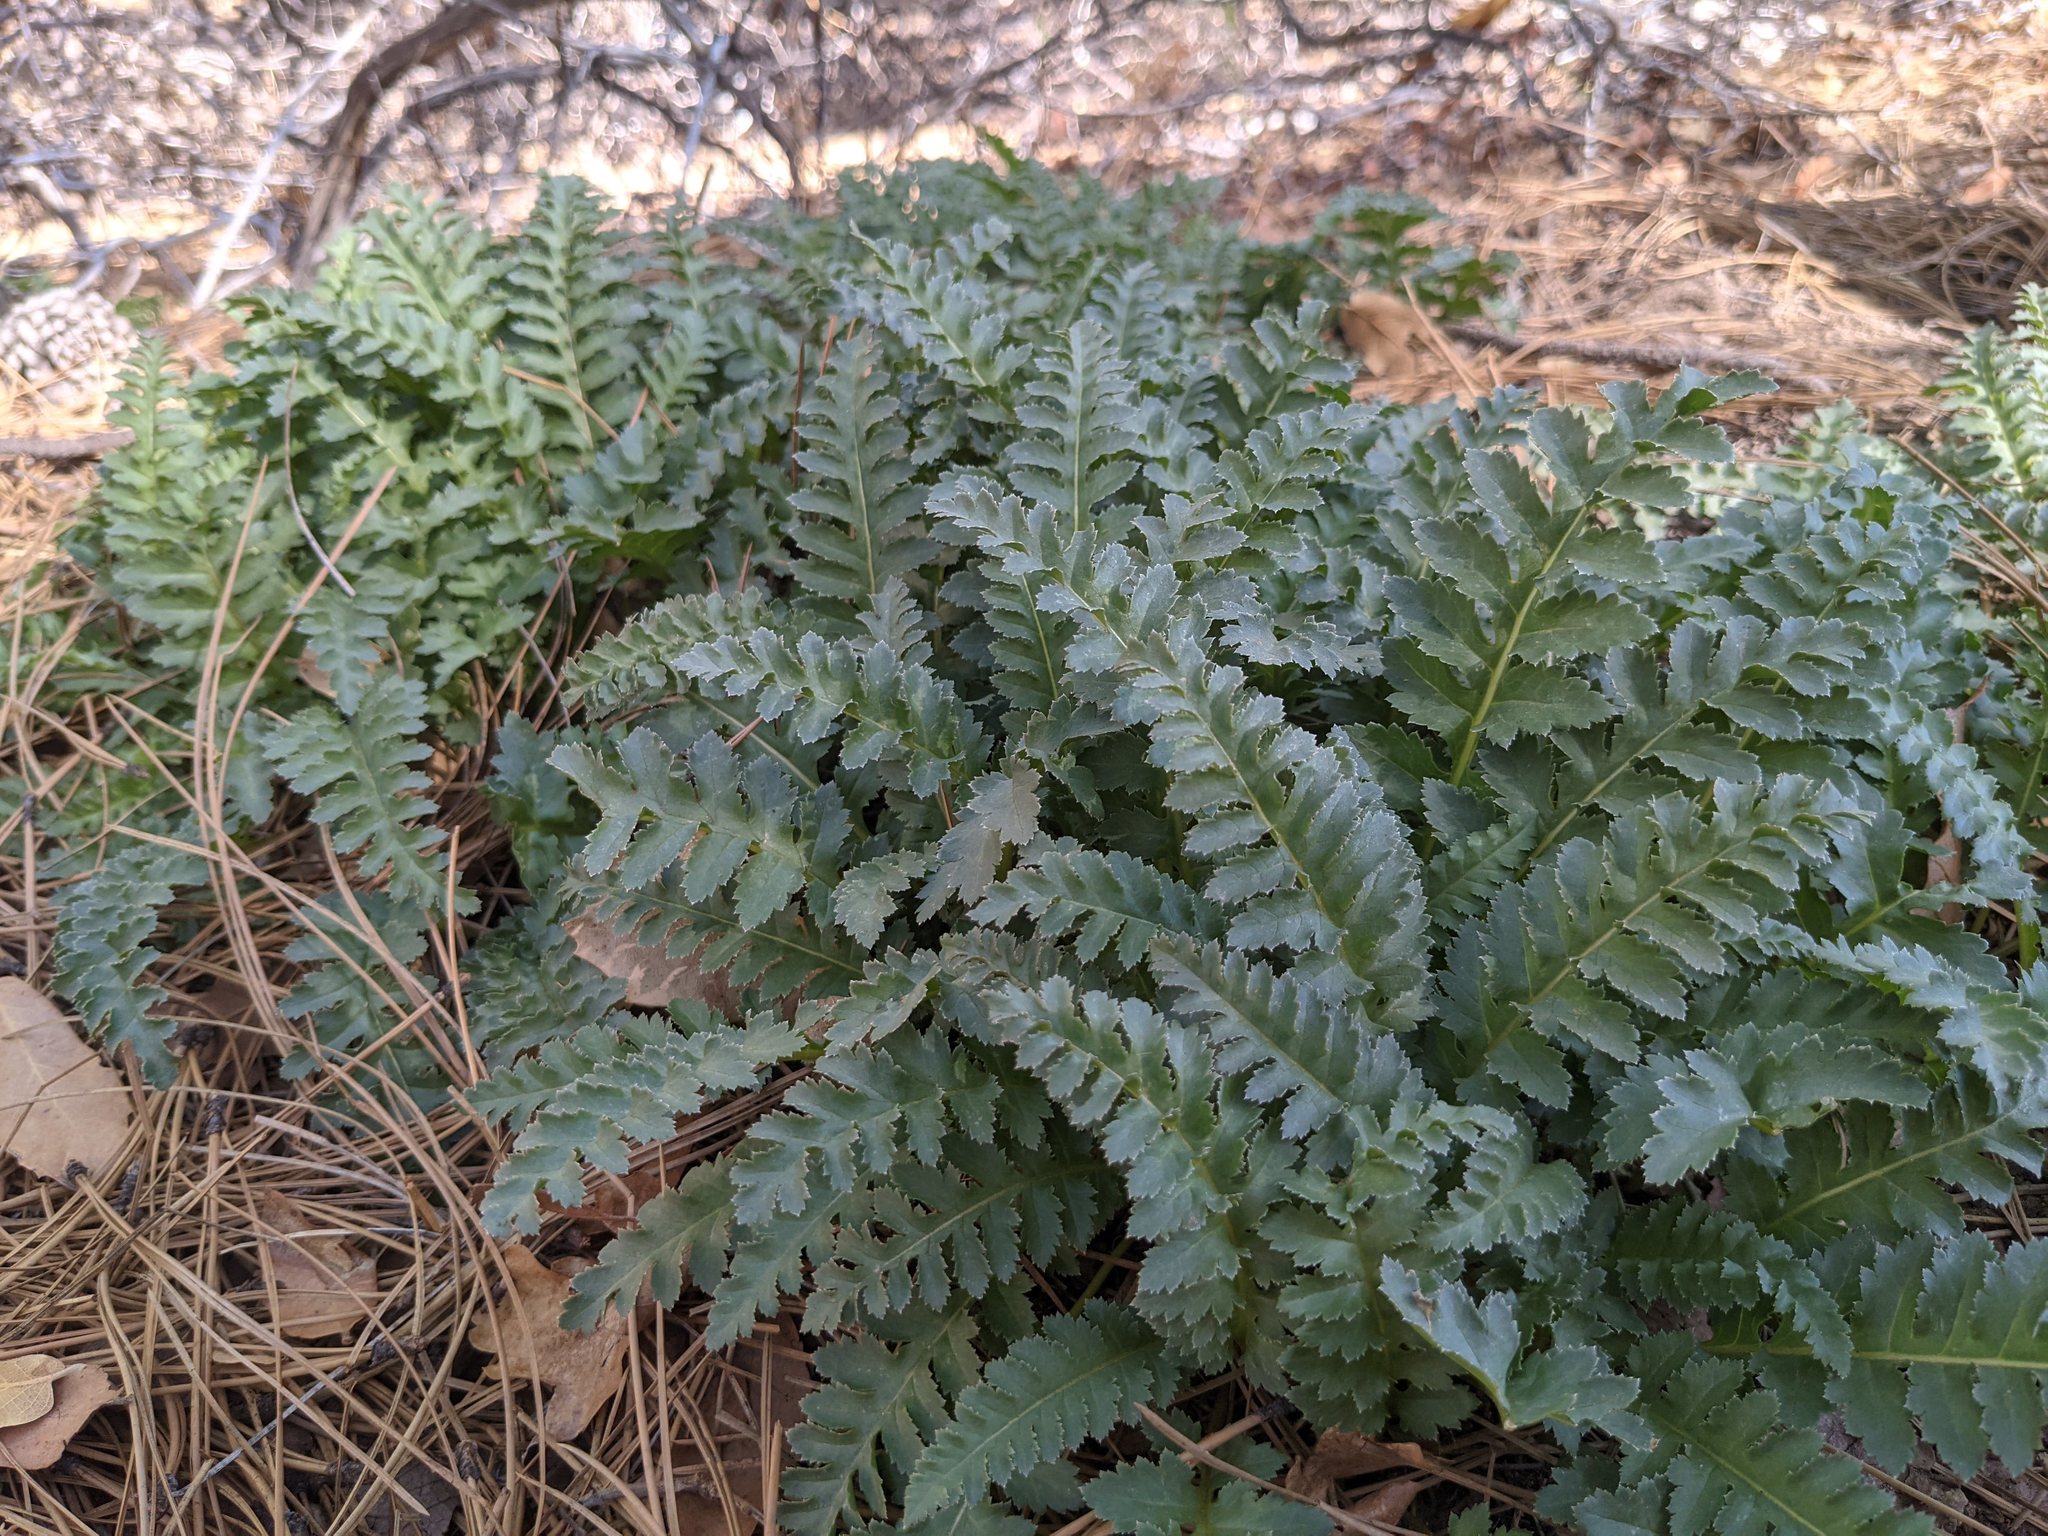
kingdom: Plantae
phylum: Tracheophyta
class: Magnoliopsida
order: Lamiales
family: Orobanchaceae
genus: Pedicularis
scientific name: Pedicularis centranthera
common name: Dwarf lousewort
